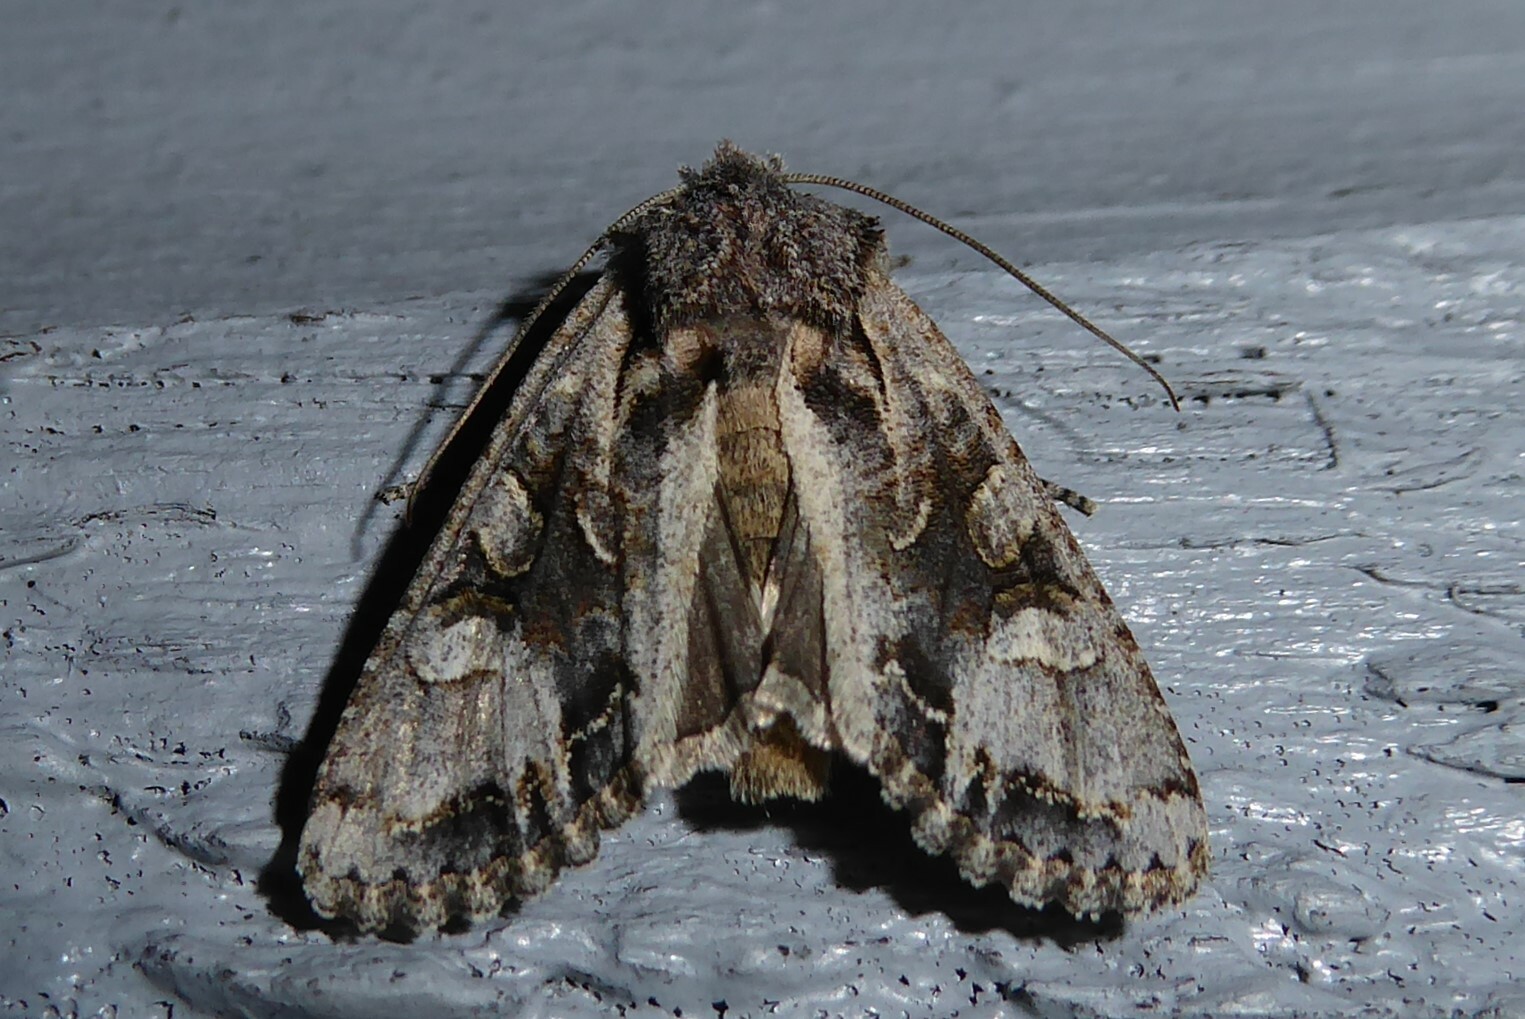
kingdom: Animalia
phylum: Arthropoda
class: Insecta
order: Lepidoptera
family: Noctuidae
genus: Ichneutica
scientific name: Ichneutica
